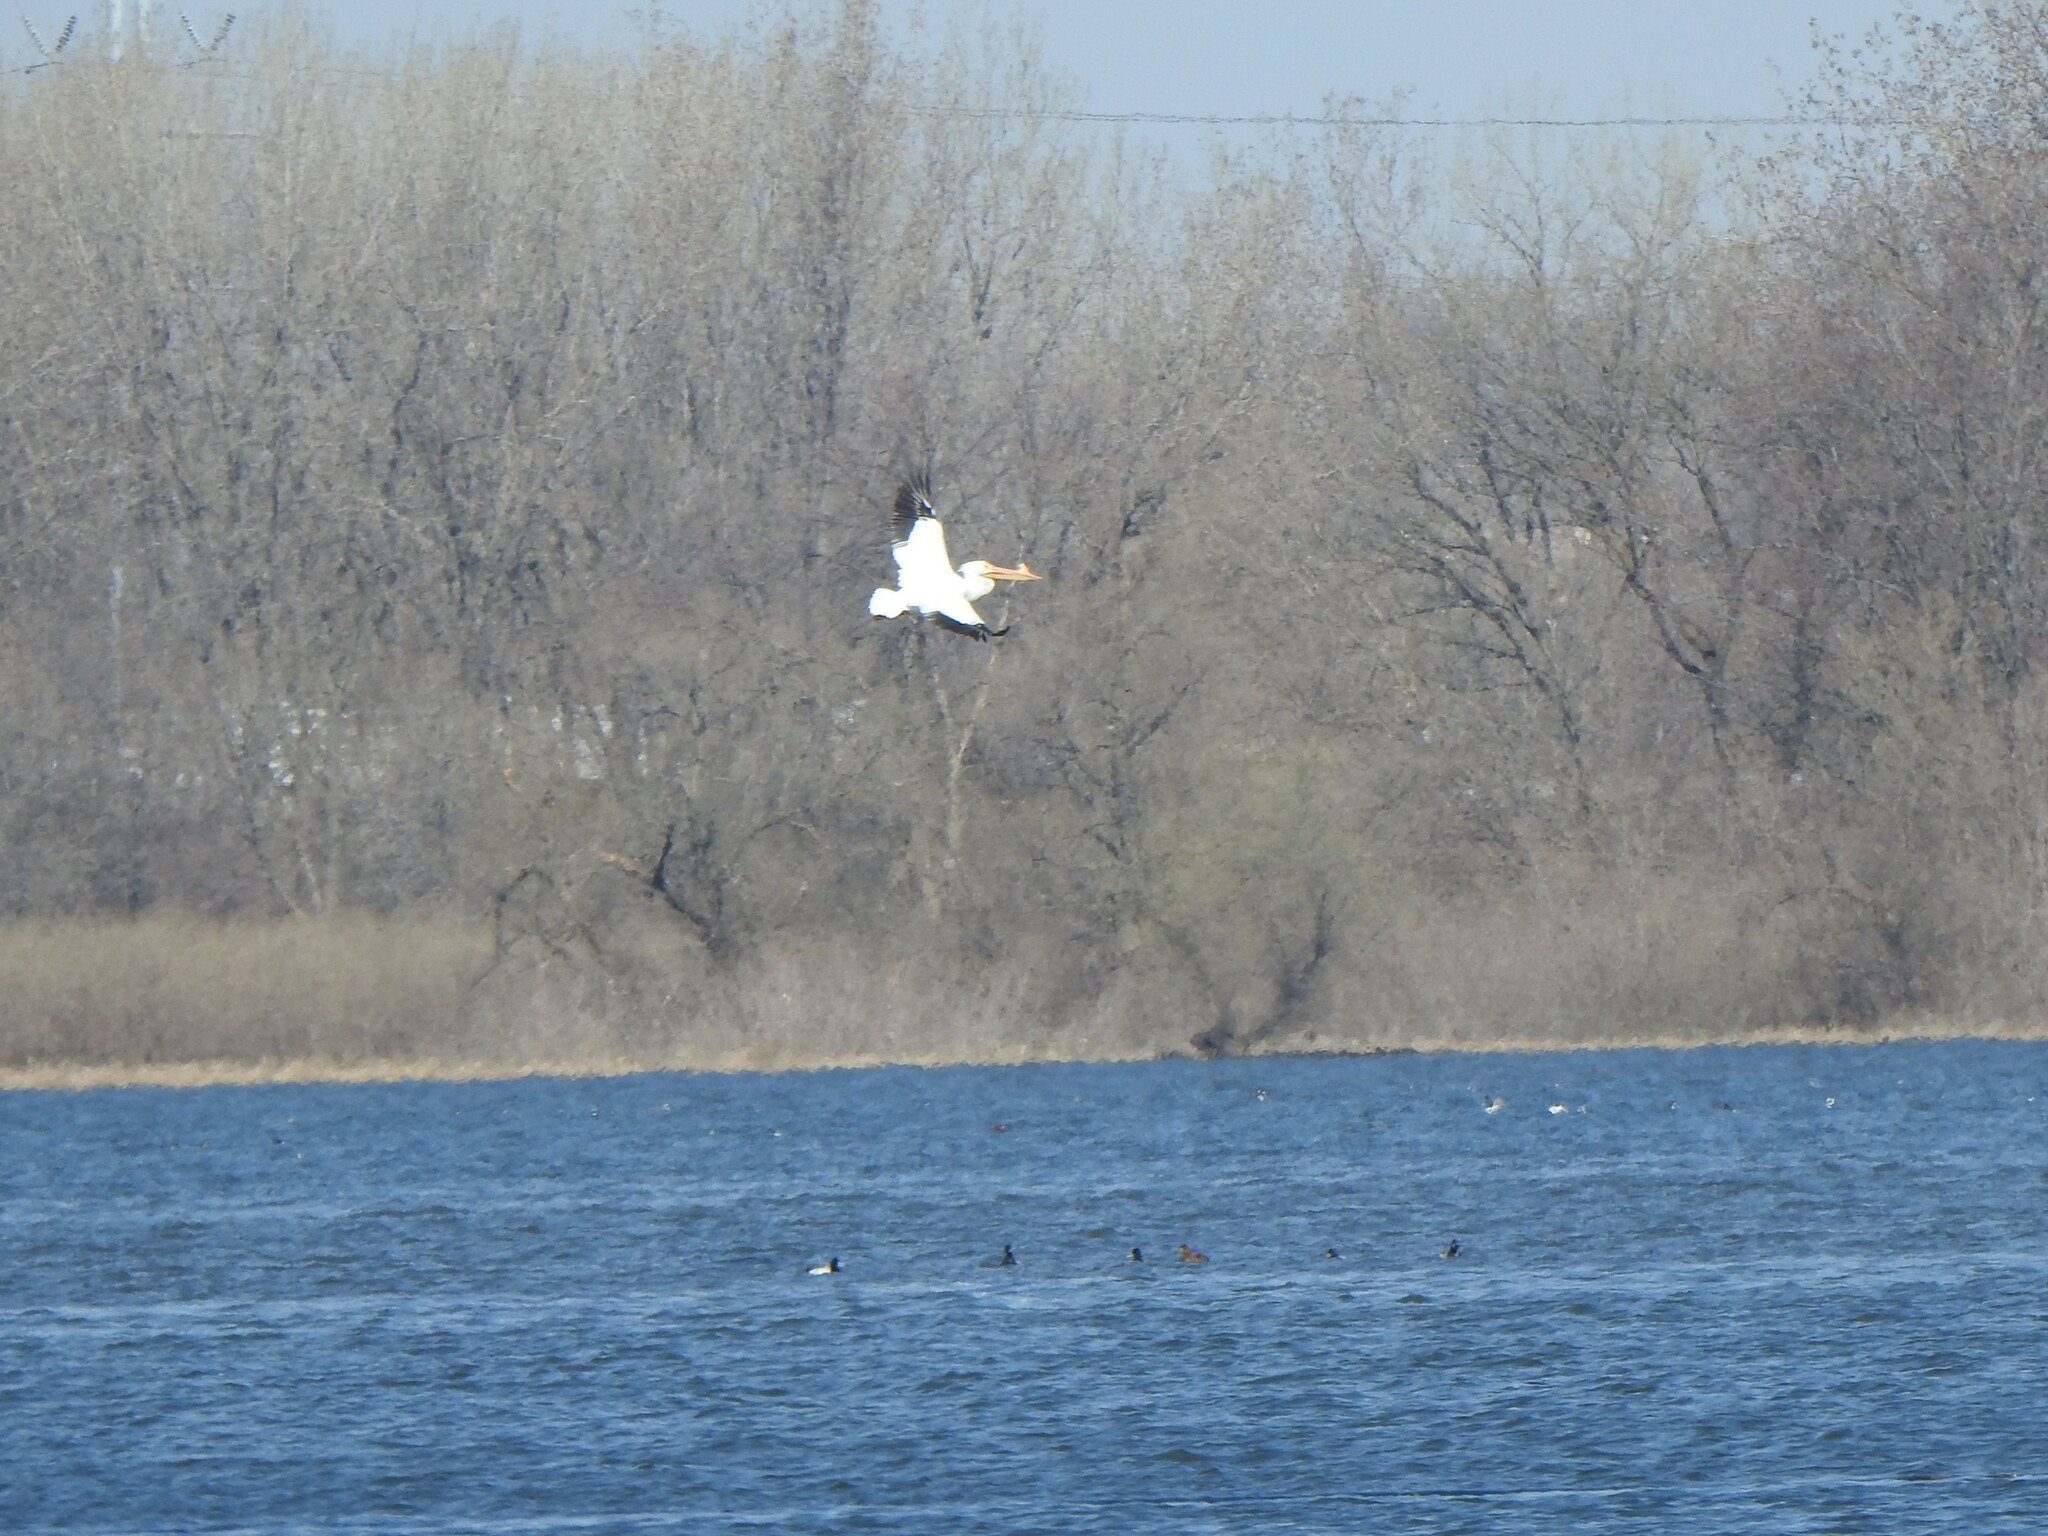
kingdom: Animalia
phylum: Chordata
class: Aves
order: Pelecaniformes
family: Pelecanidae
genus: Pelecanus
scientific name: Pelecanus erythrorhynchos
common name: American white pelican
